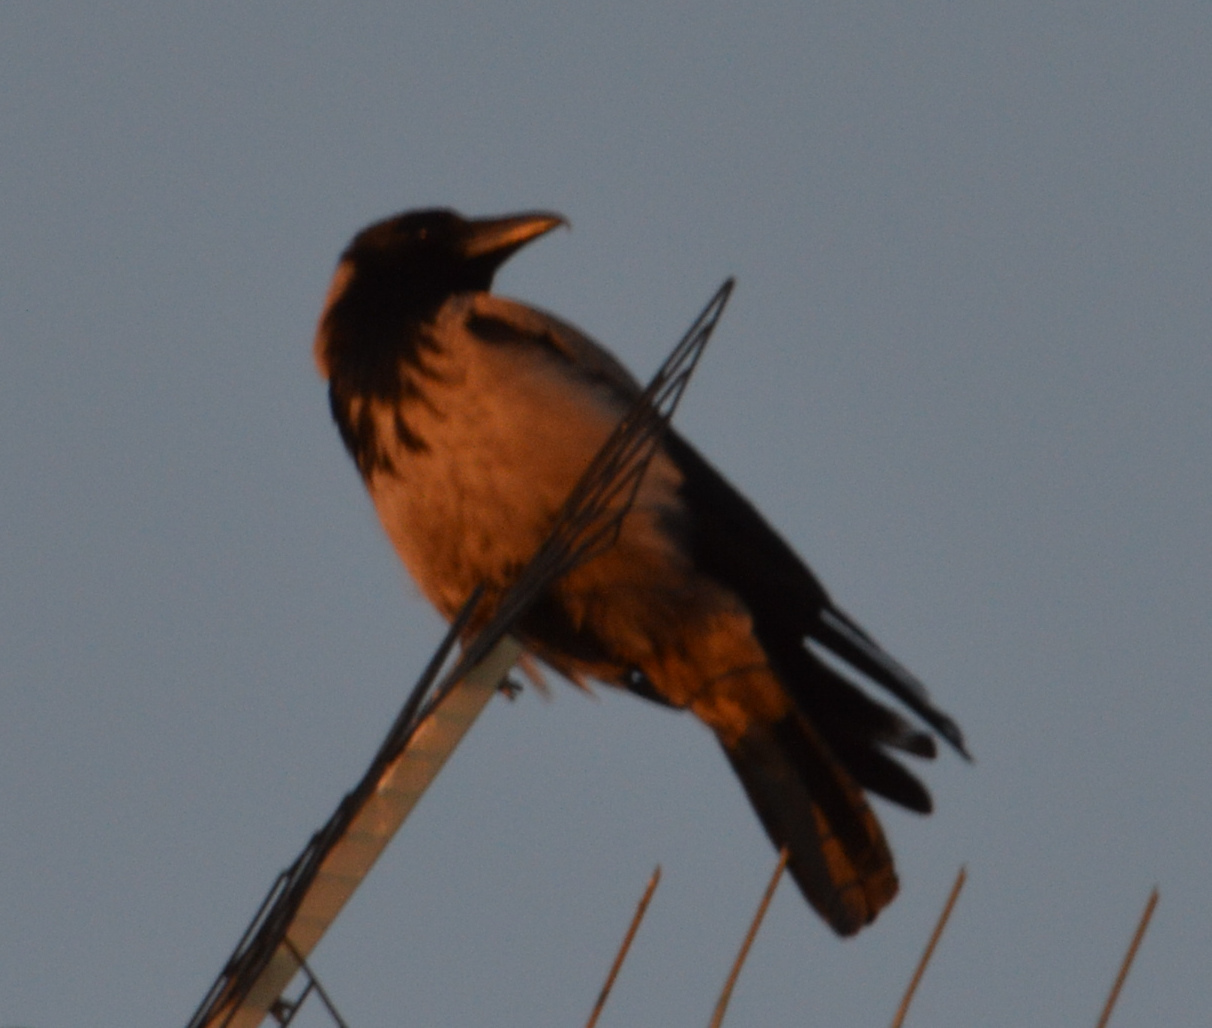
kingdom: Animalia
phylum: Chordata
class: Aves
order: Passeriformes
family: Corvidae
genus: Corvus
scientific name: Corvus cornix
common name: Hooded crow
